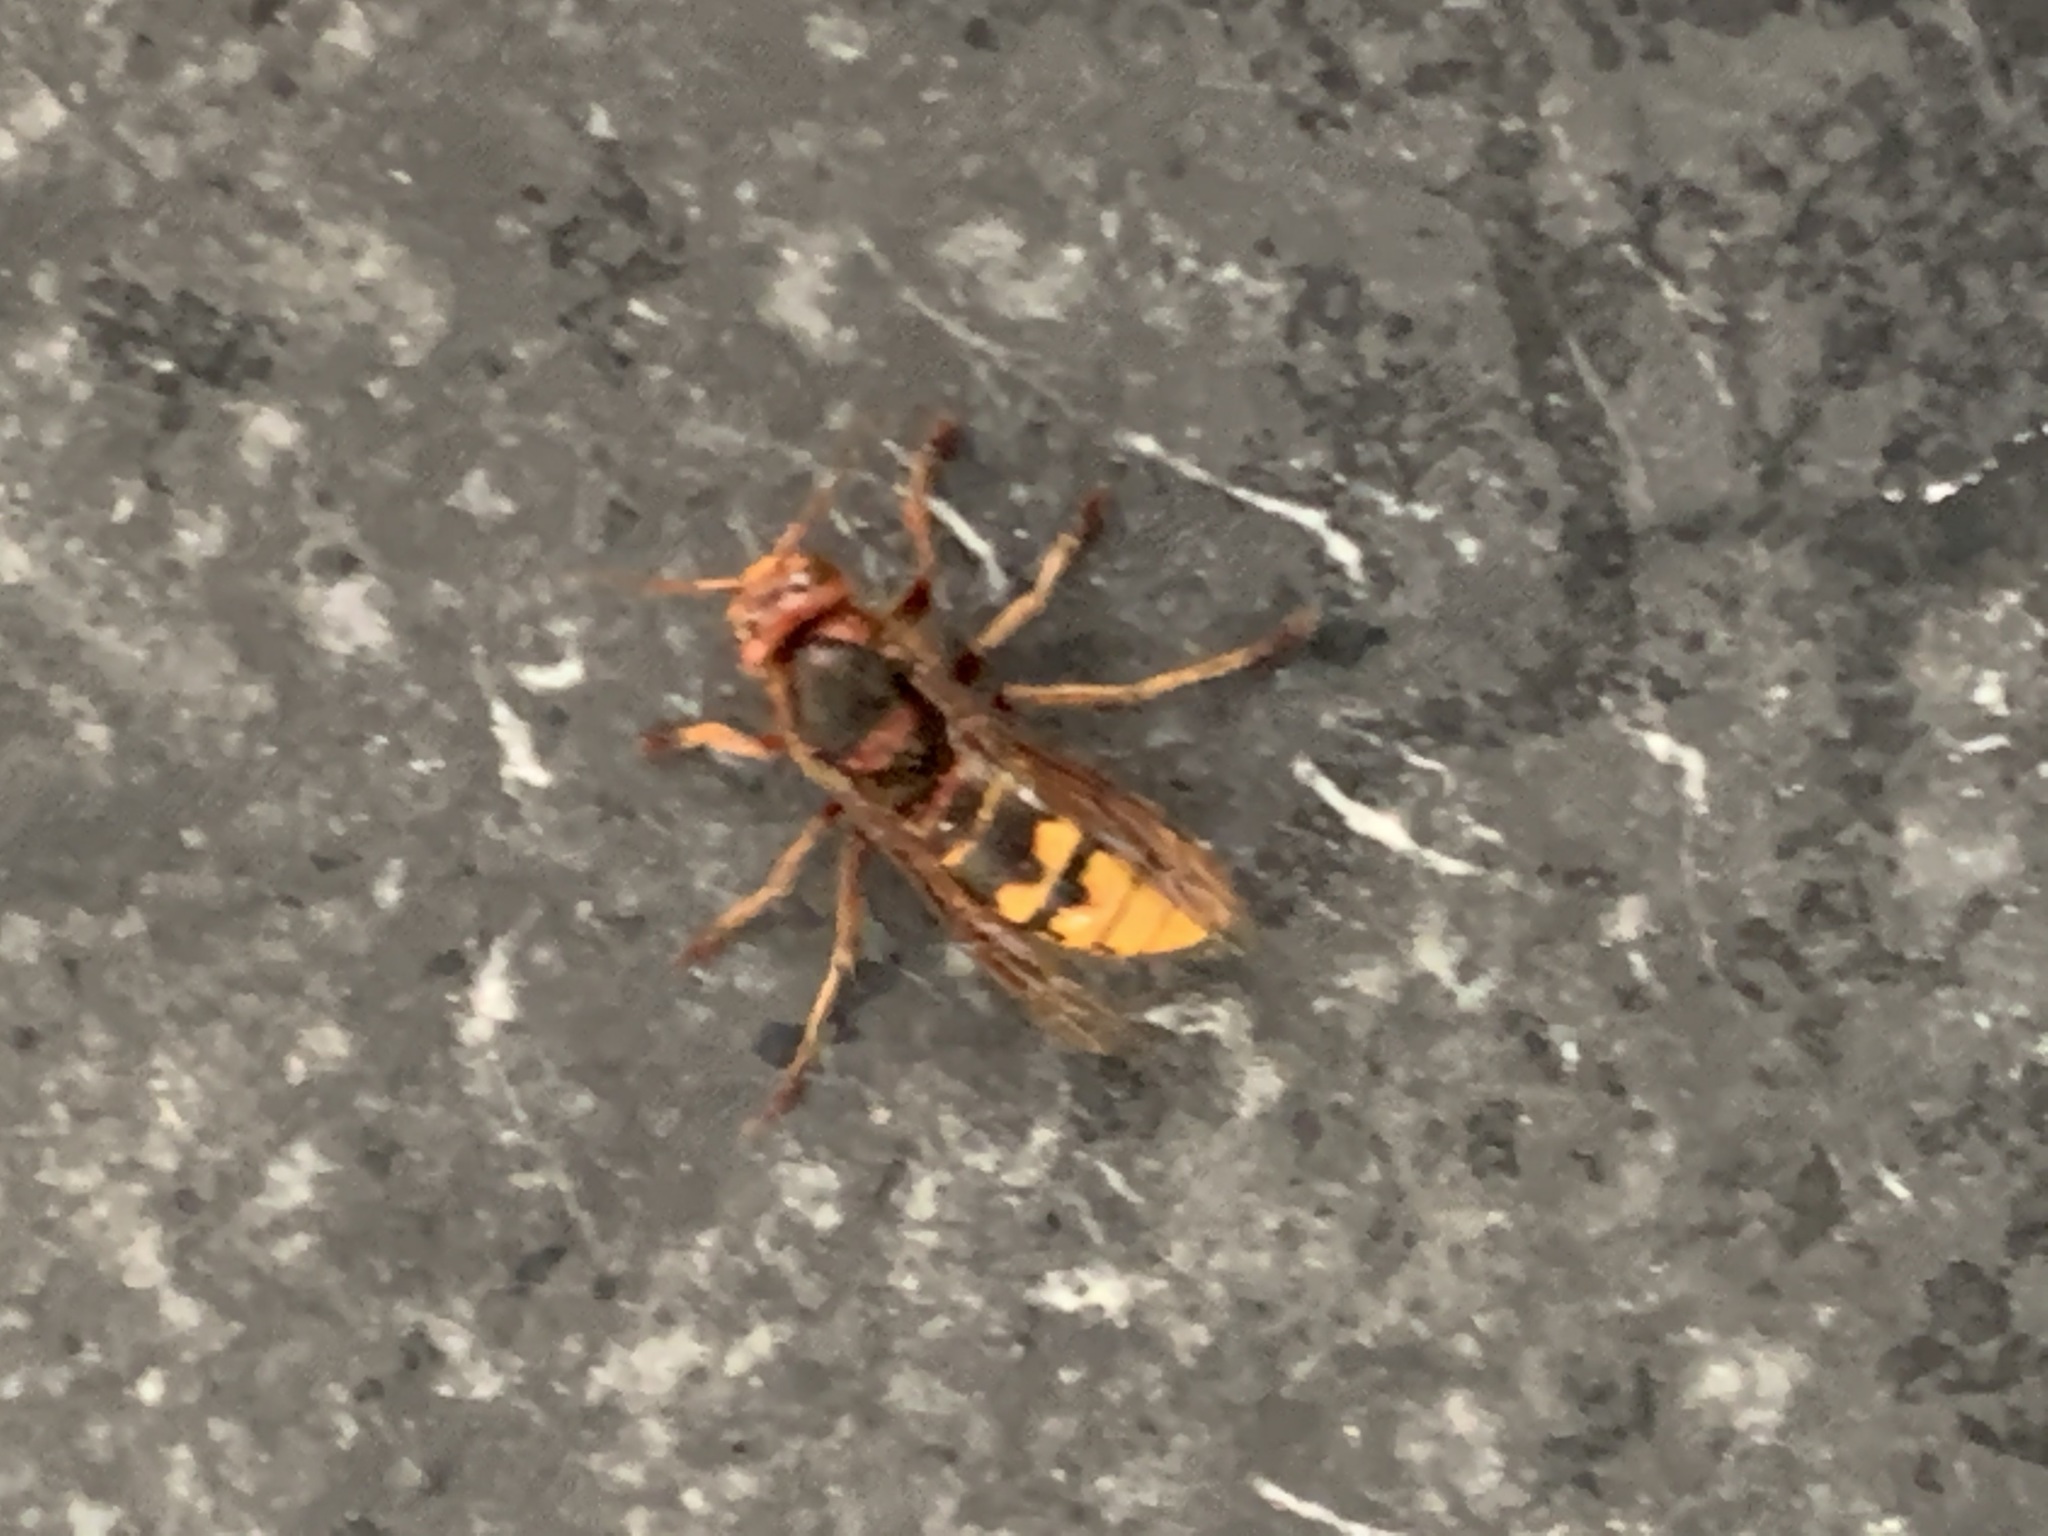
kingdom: Animalia
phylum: Arthropoda
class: Insecta
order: Hymenoptera
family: Vespidae
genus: Vespa
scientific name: Vespa crabro
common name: Hornet
